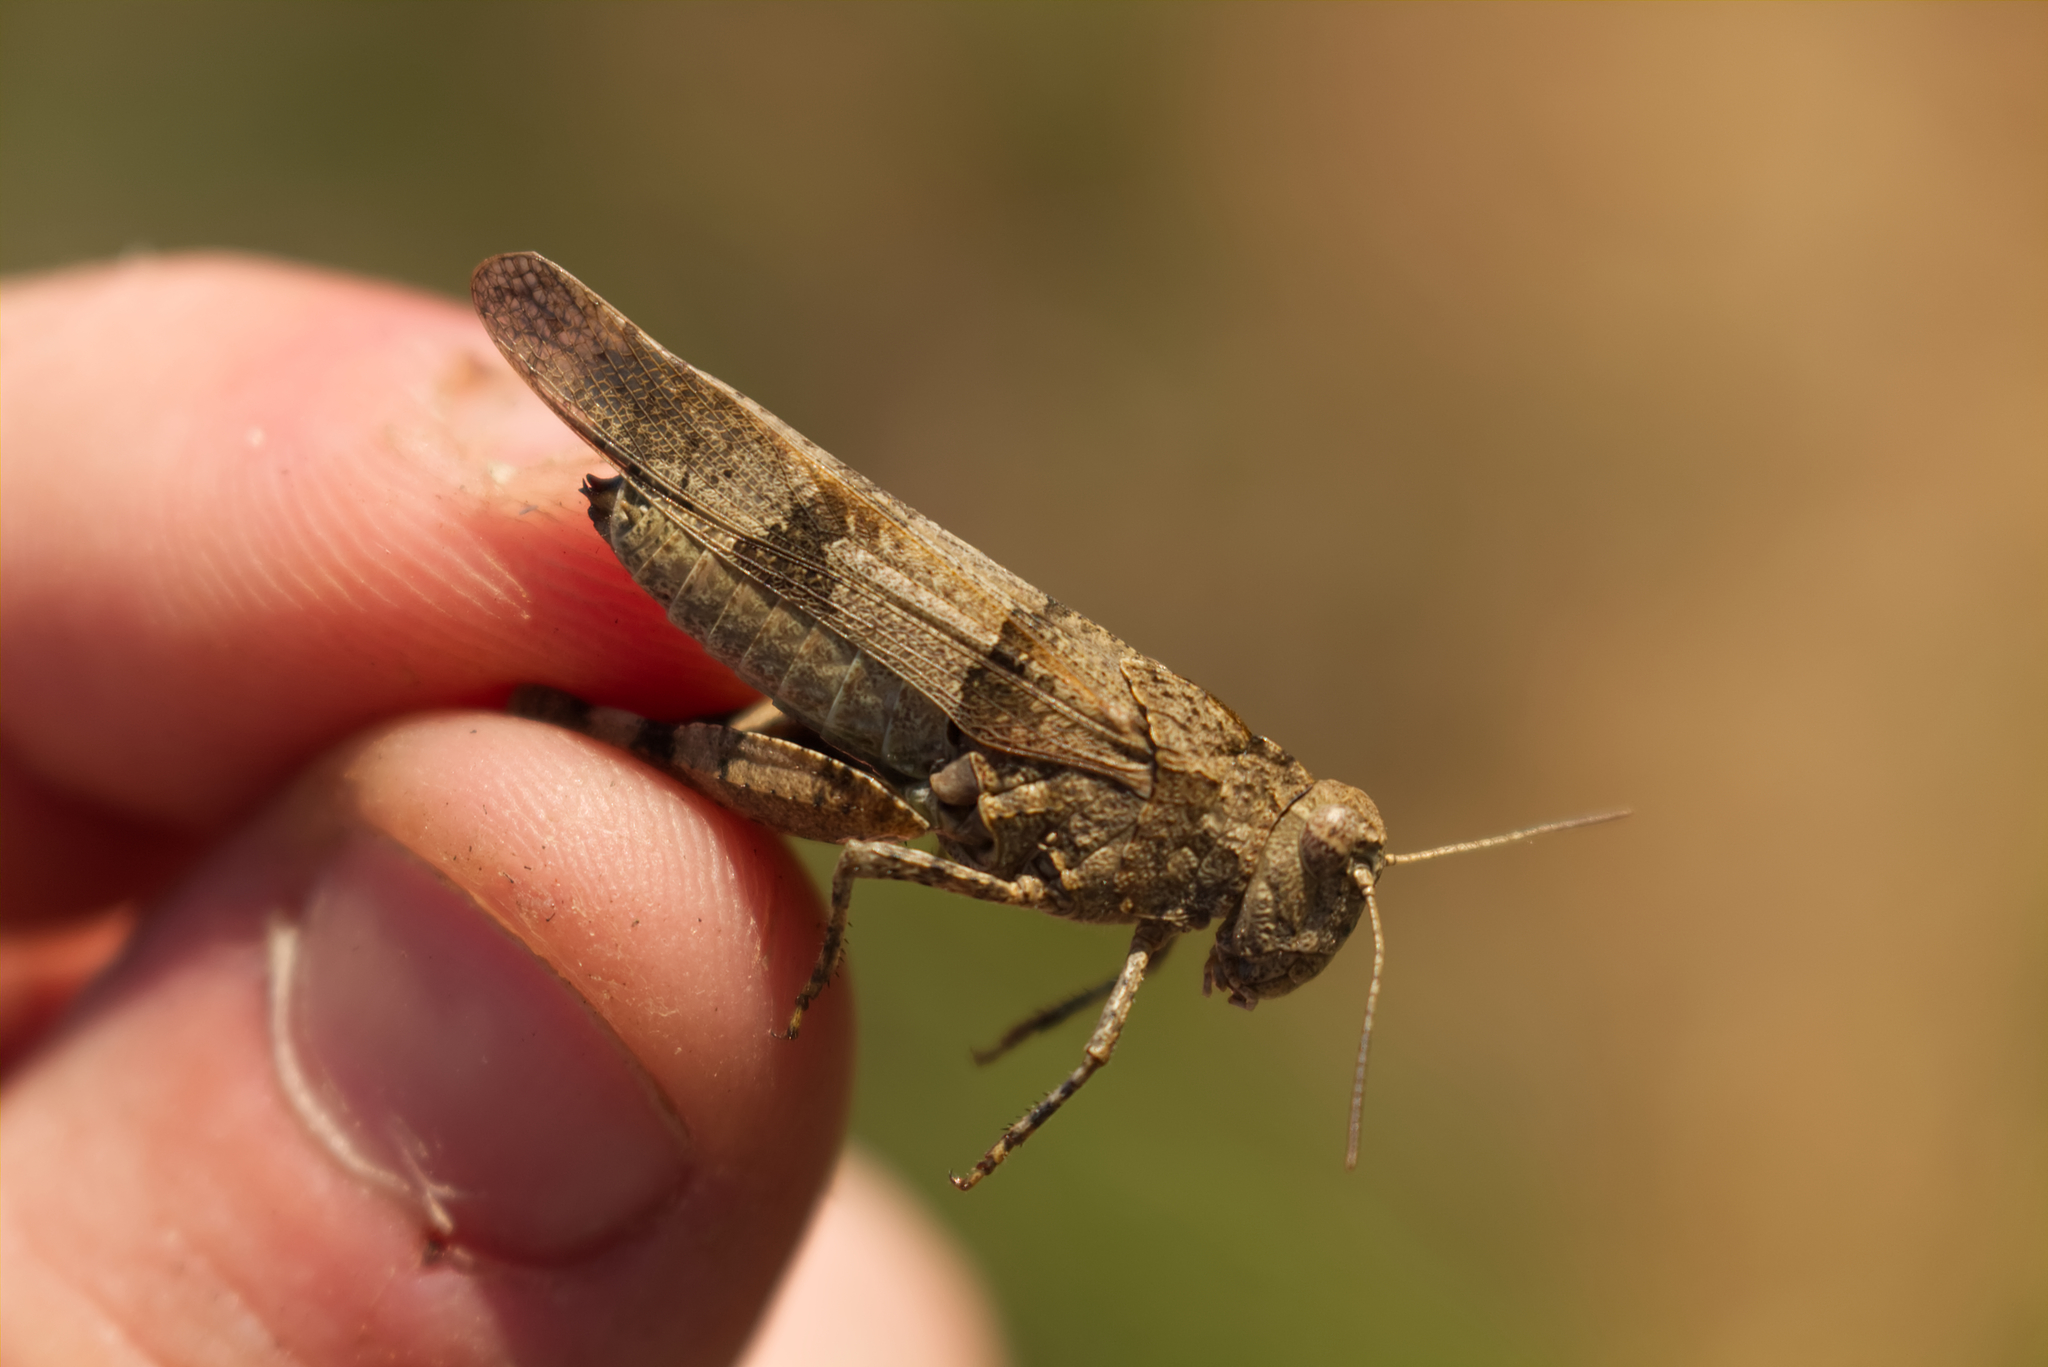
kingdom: Animalia
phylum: Arthropoda
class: Insecta
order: Orthoptera
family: Acrididae
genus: Oedipoda
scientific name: Oedipoda caerulescens
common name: Blue-winged grasshopper
